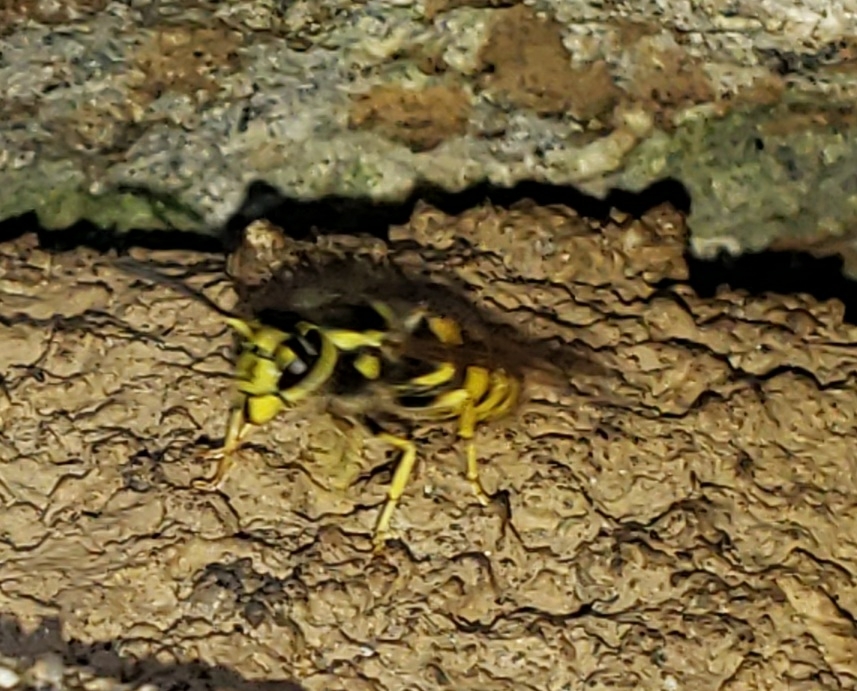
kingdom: Animalia
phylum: Arthropoda
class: Insecta
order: Hymenoptera
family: Vespidae
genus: Vespula
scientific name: Vespula pensylvanica
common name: Western yellowjacket
